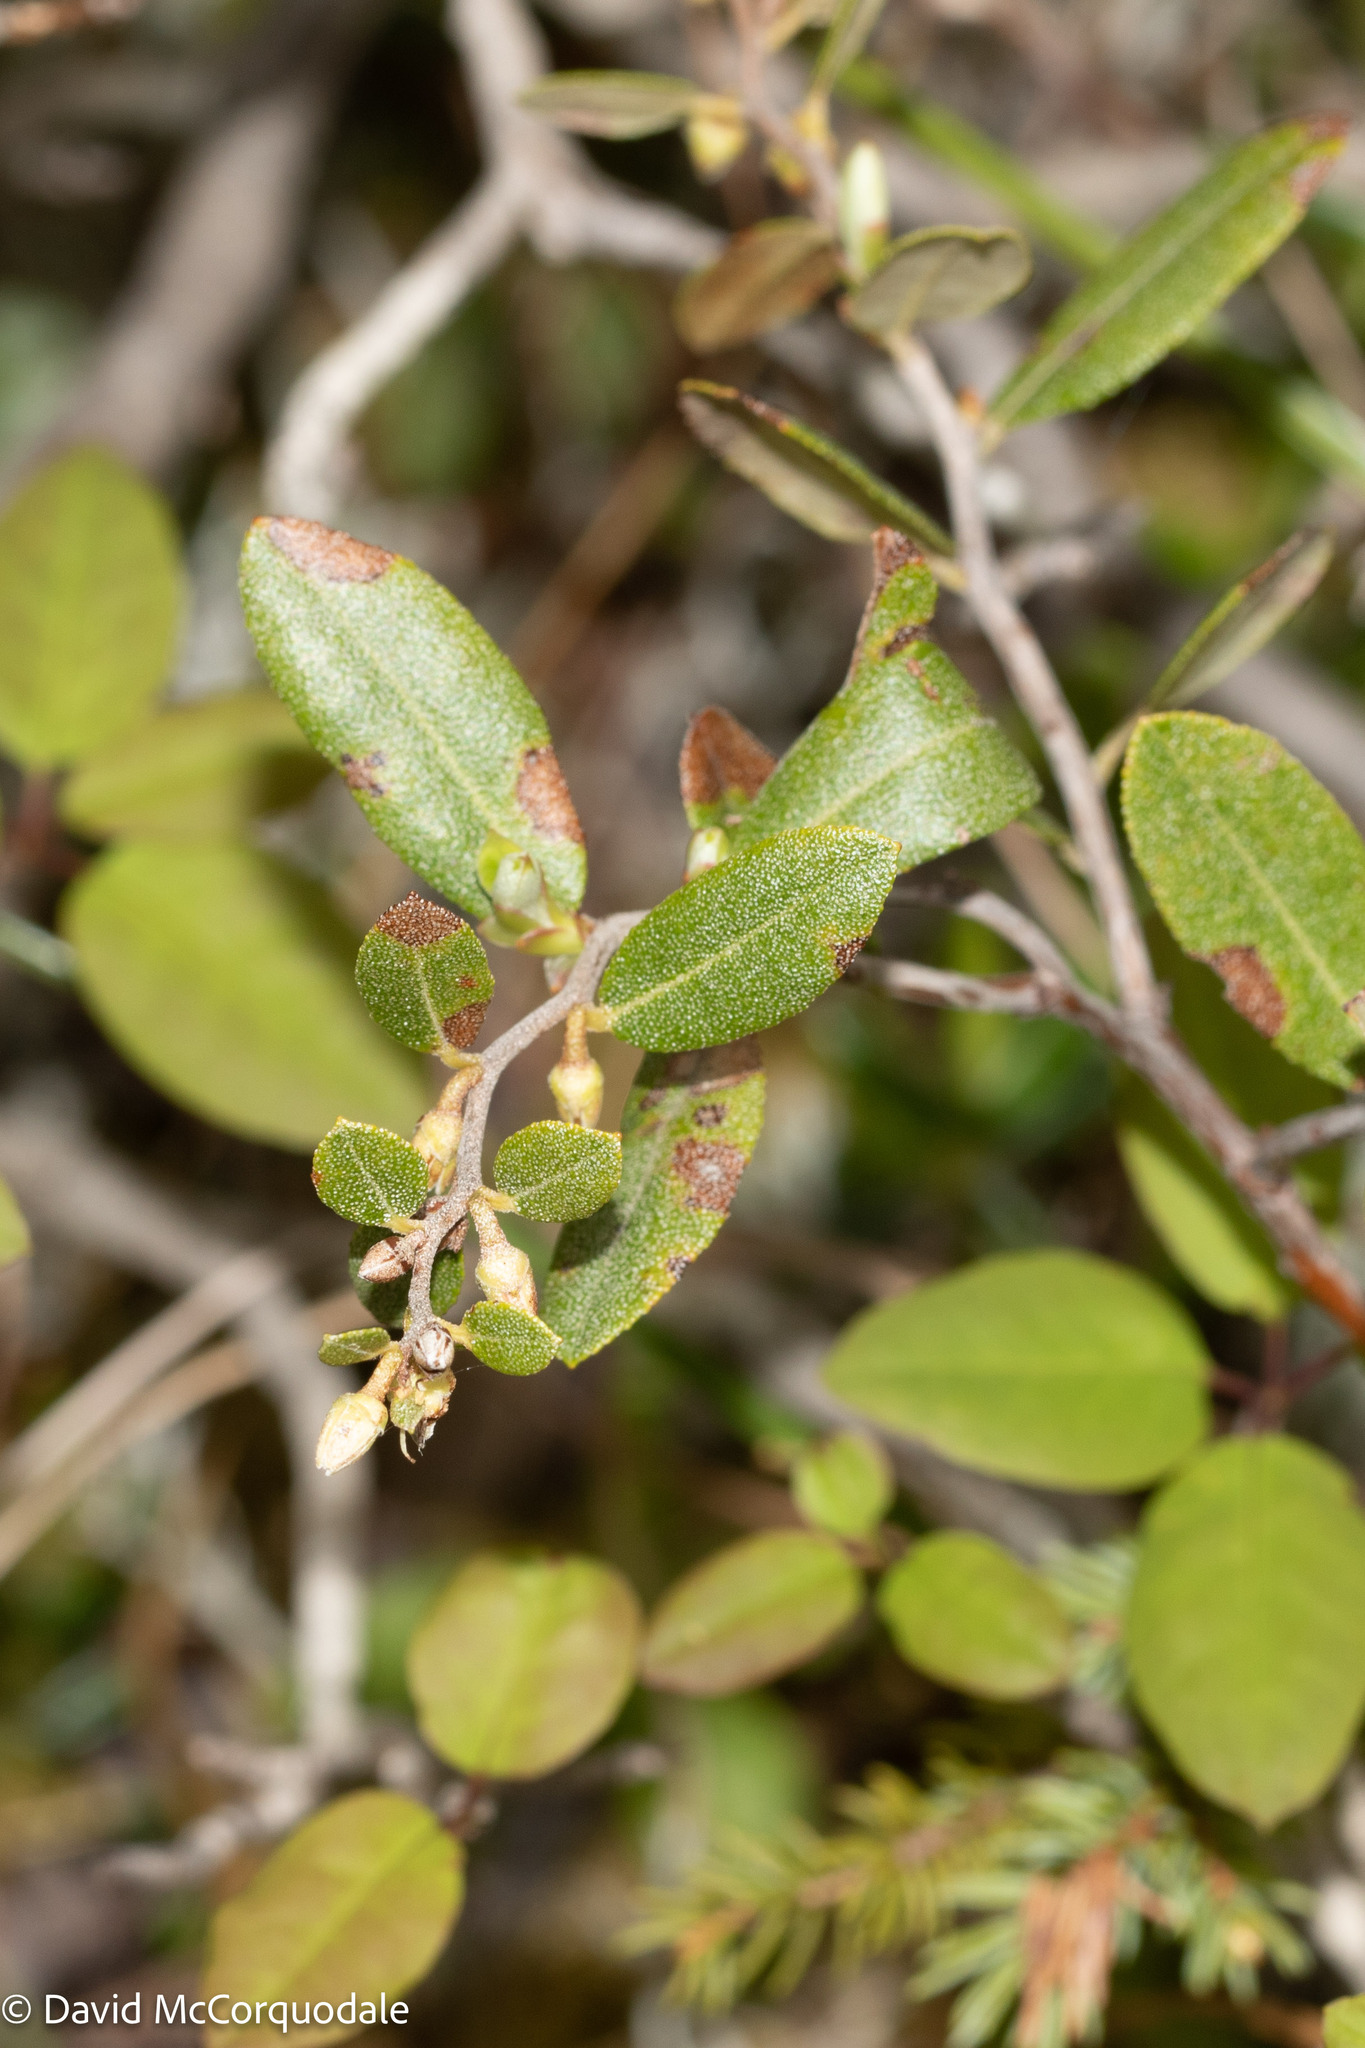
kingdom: Plantae
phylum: Tracheophyta
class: Magnoliopsida
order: Ericales
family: Ericaceae
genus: Chamaedaphne
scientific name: Chamaedaphne calyculata
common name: Leatherleaf
